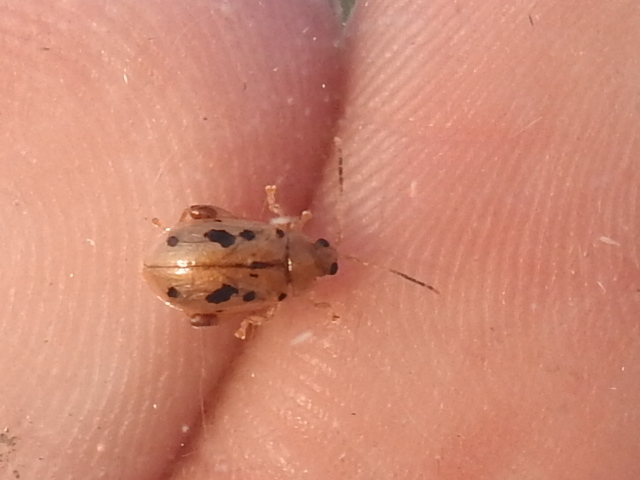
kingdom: Animalia
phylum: Arthropoda
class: Insecta
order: Coleoptera
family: Chrysomelidae
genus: Capraita
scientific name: Capraita nigrosignata
